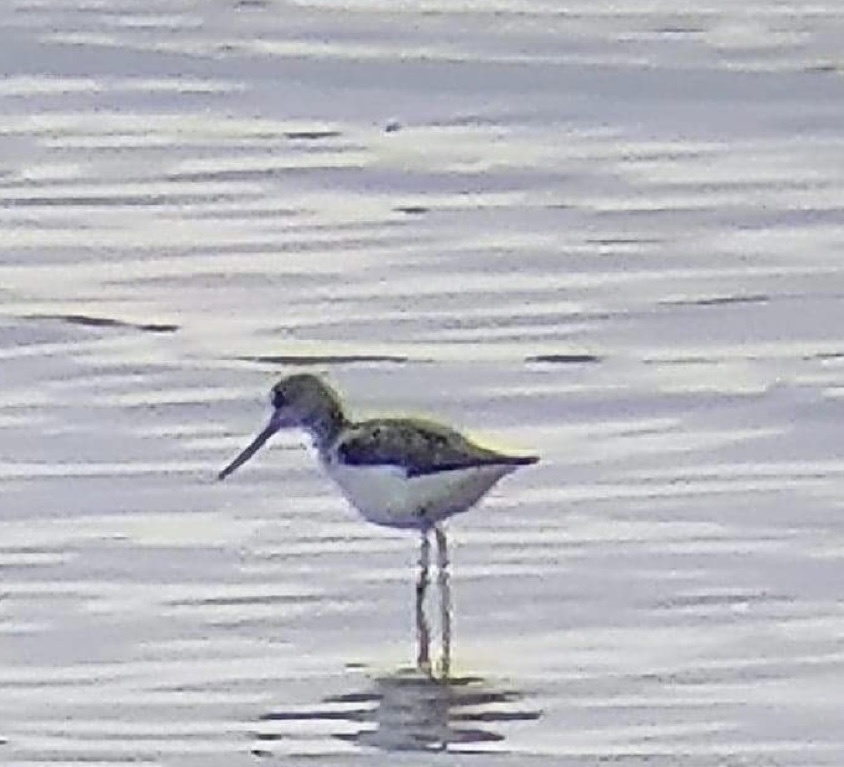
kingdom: Animalia
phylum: Chordata
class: Aves
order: Charadriiformes
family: Scolopacidae
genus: Tringa
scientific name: Tringa nebularia
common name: Common greenshank
